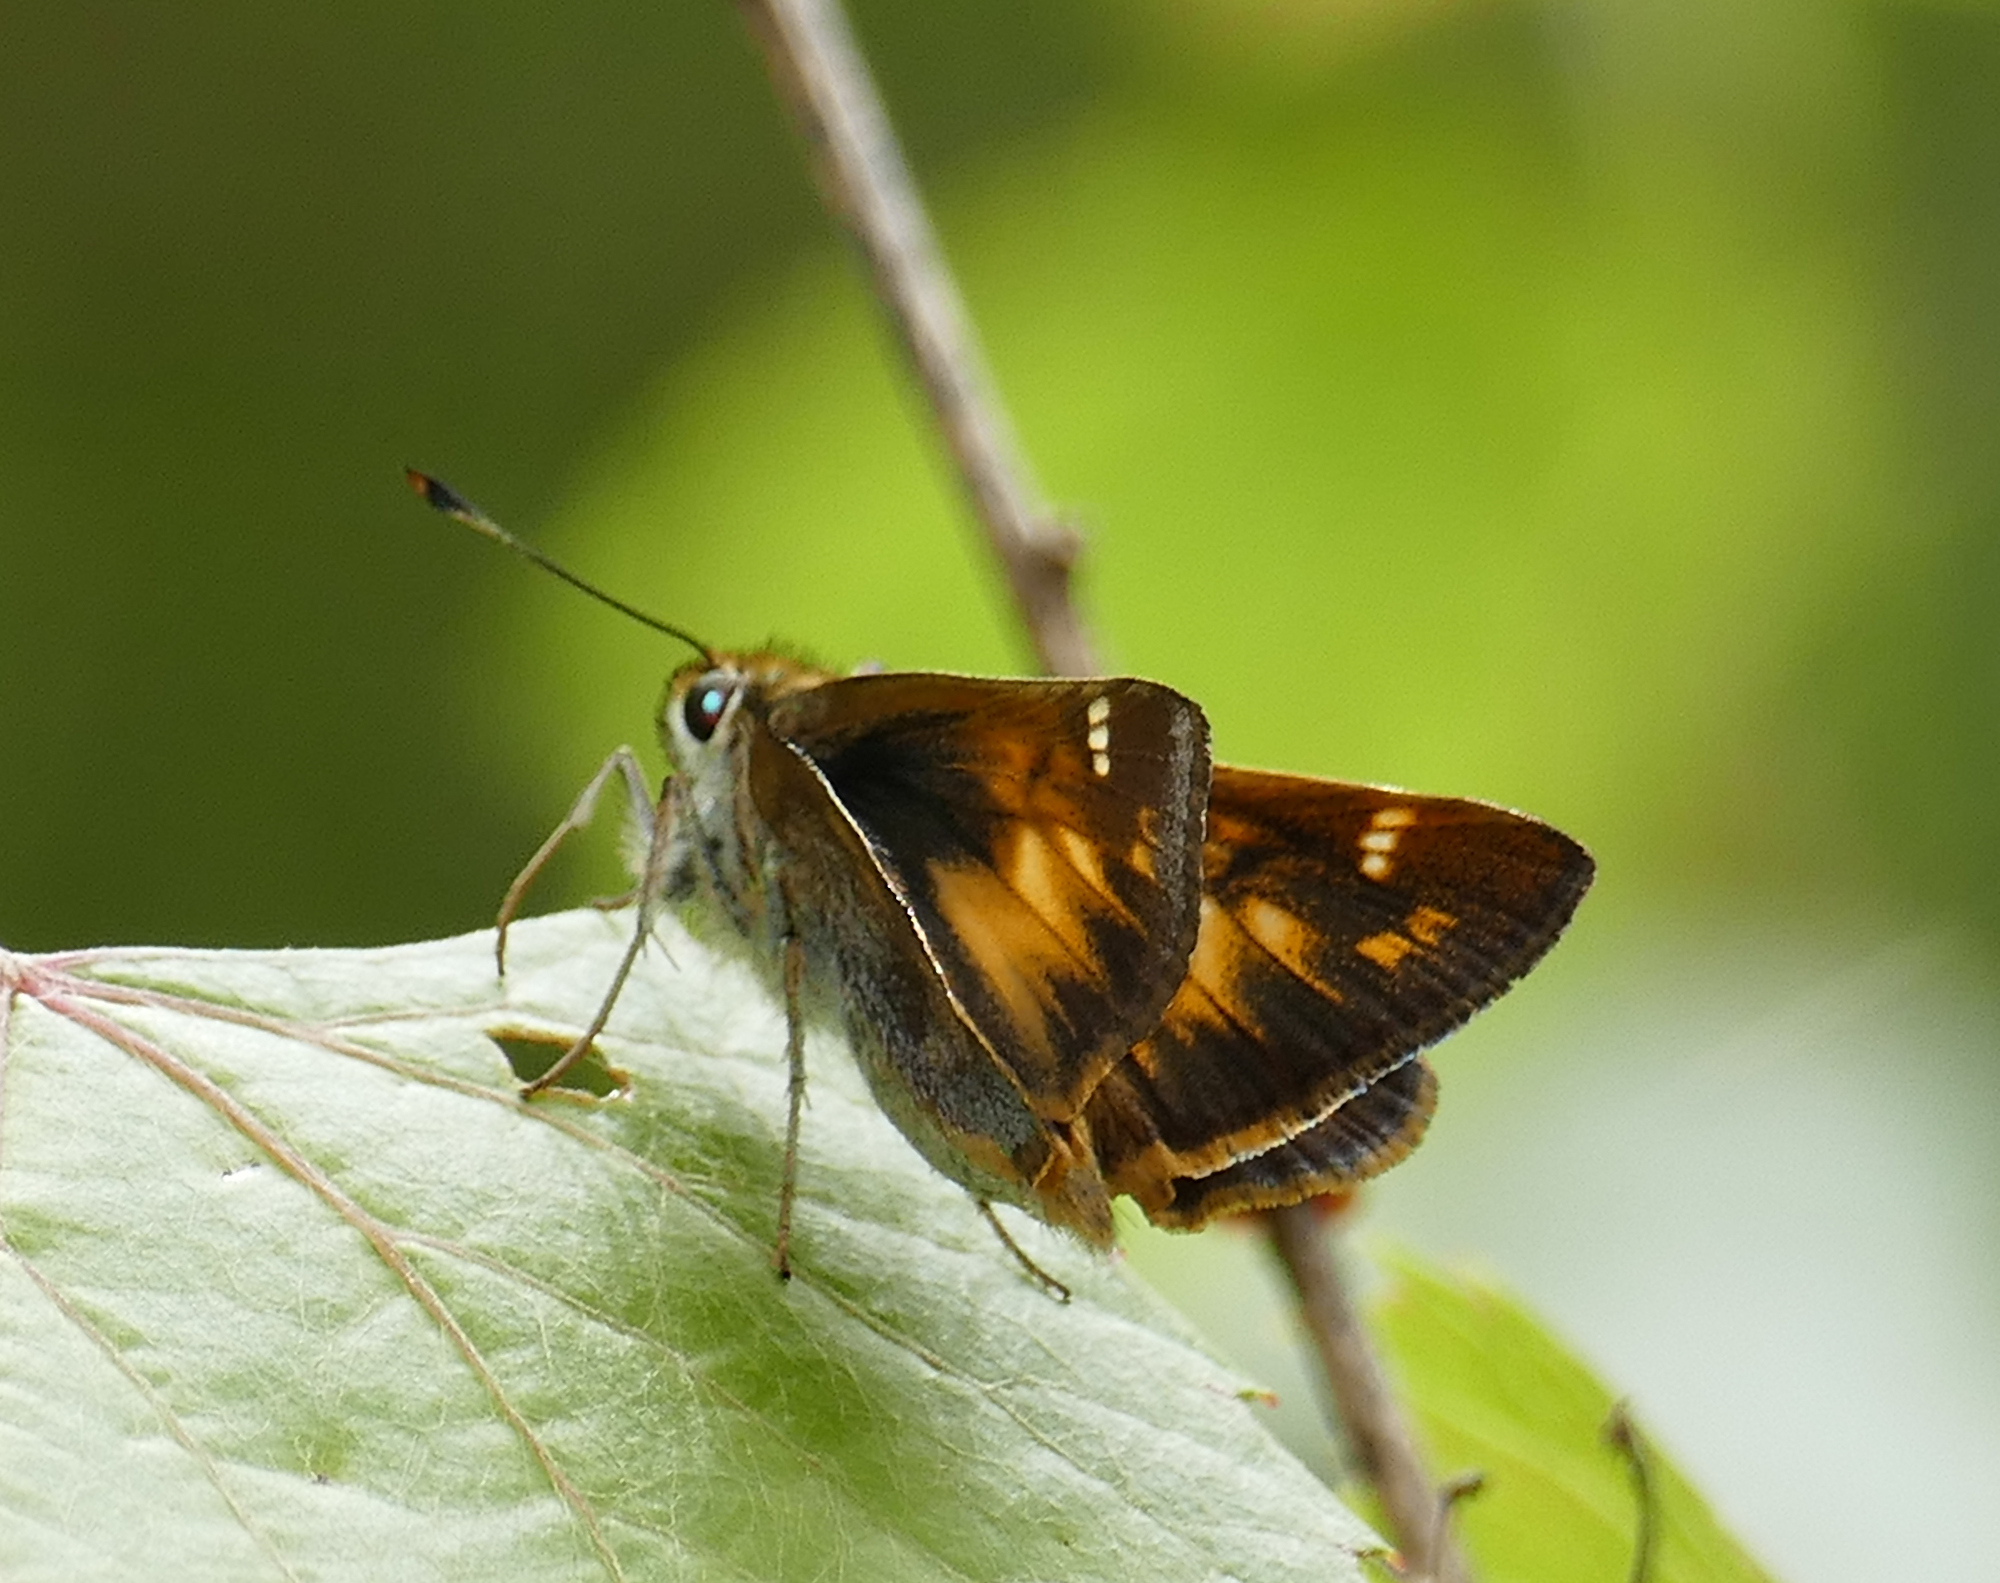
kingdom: Animalia
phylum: Arthropoda
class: Insecta
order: Lepidoptera
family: Hesperiidae
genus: Lon
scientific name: Lon taxiles
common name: Taxiles skipper
